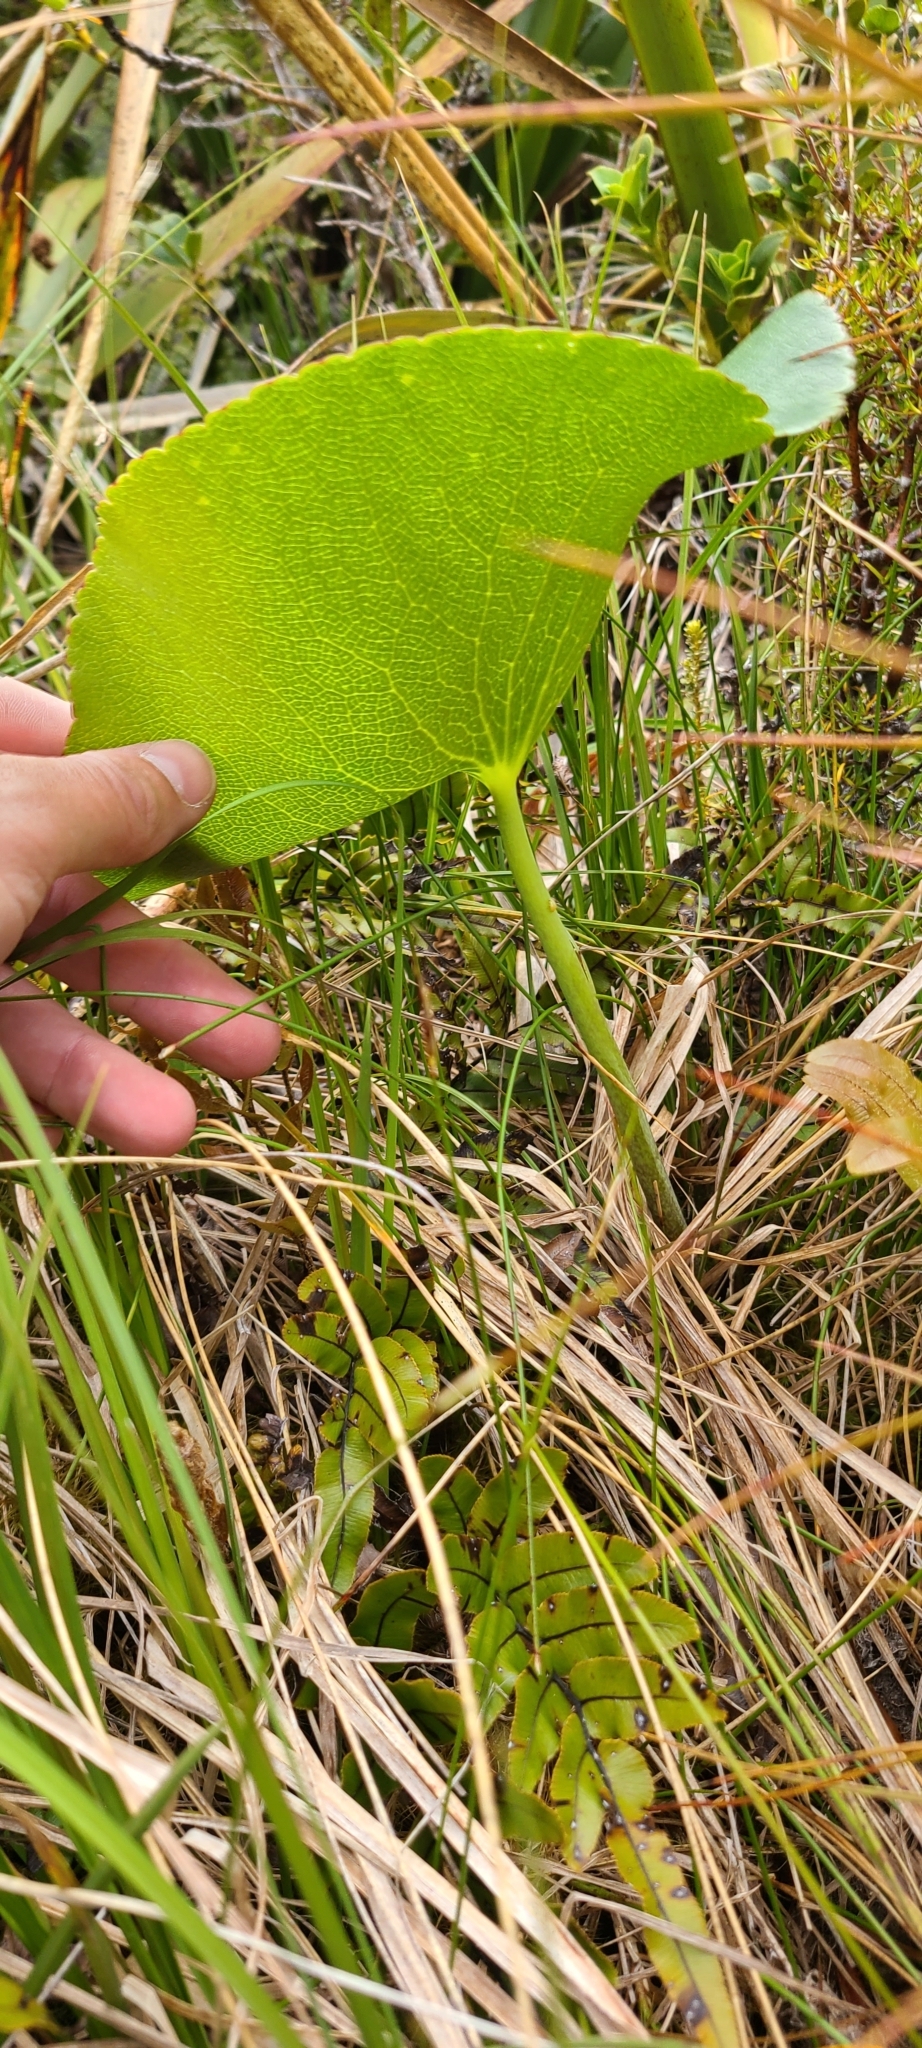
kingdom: Plantae
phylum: Tracheophyta
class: Magnoliopsida
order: Ranunculales
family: Ranunculaceae
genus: Ranunculus
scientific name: Ranunculus lyallii
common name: Mountain-lily
